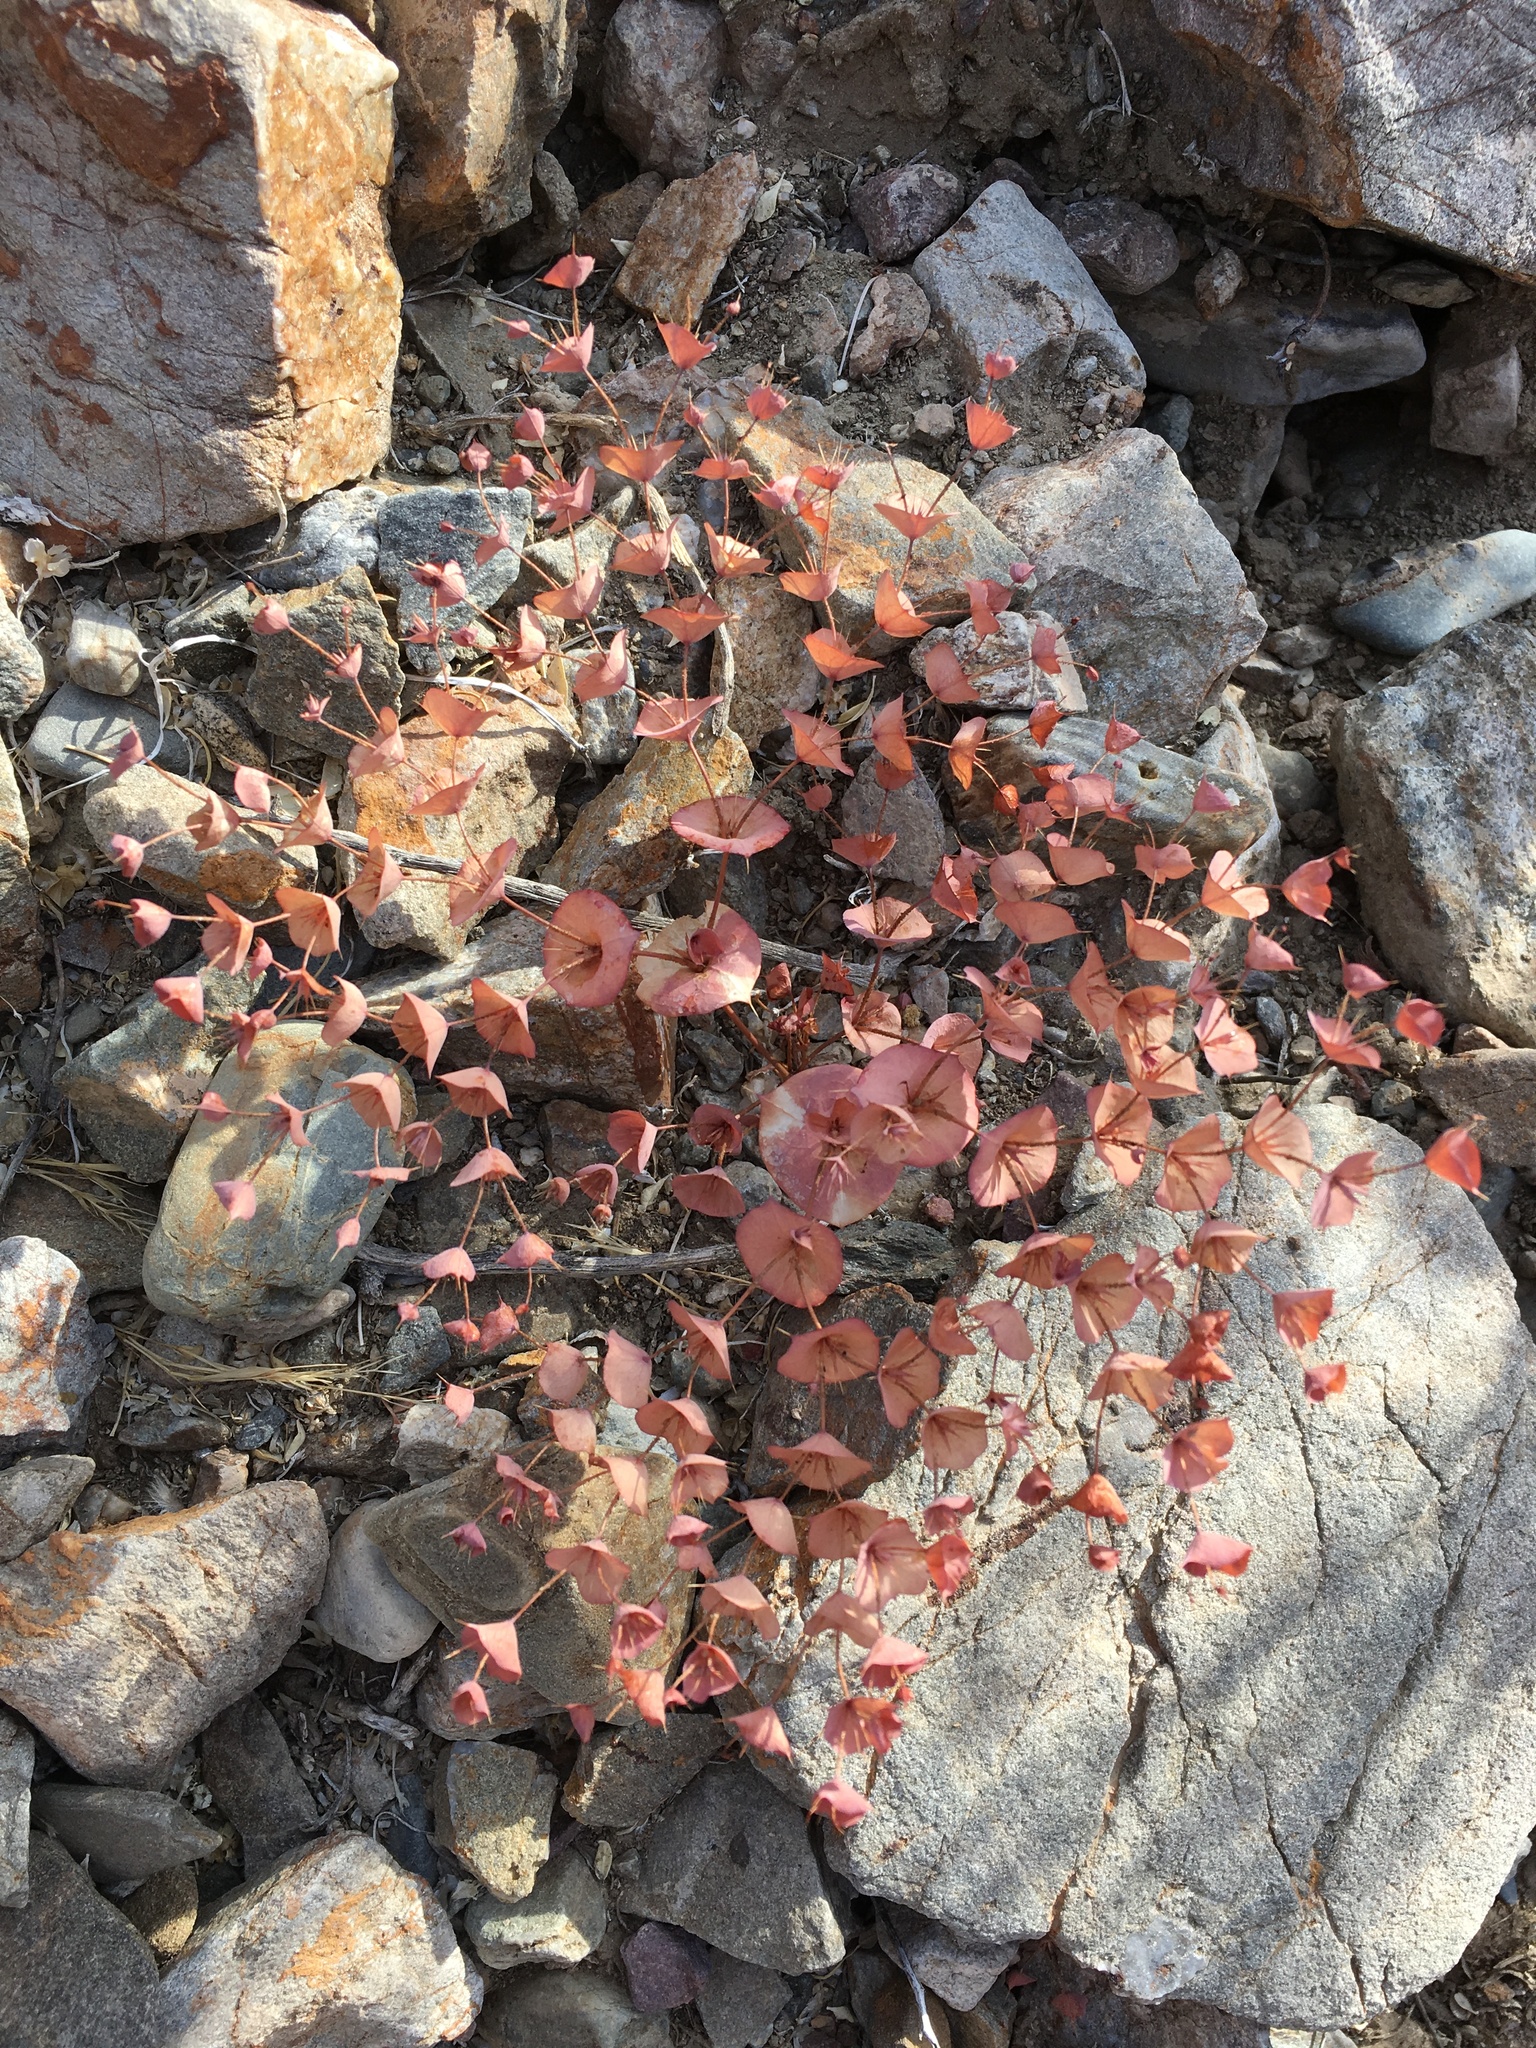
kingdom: Plantae
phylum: Tracheophyta
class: Magnoliopsida
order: Caryophyllales
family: Polygonaceae
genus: Oxytheca
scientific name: Oxytheca perfoliata
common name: Round-leaf puncturebract
